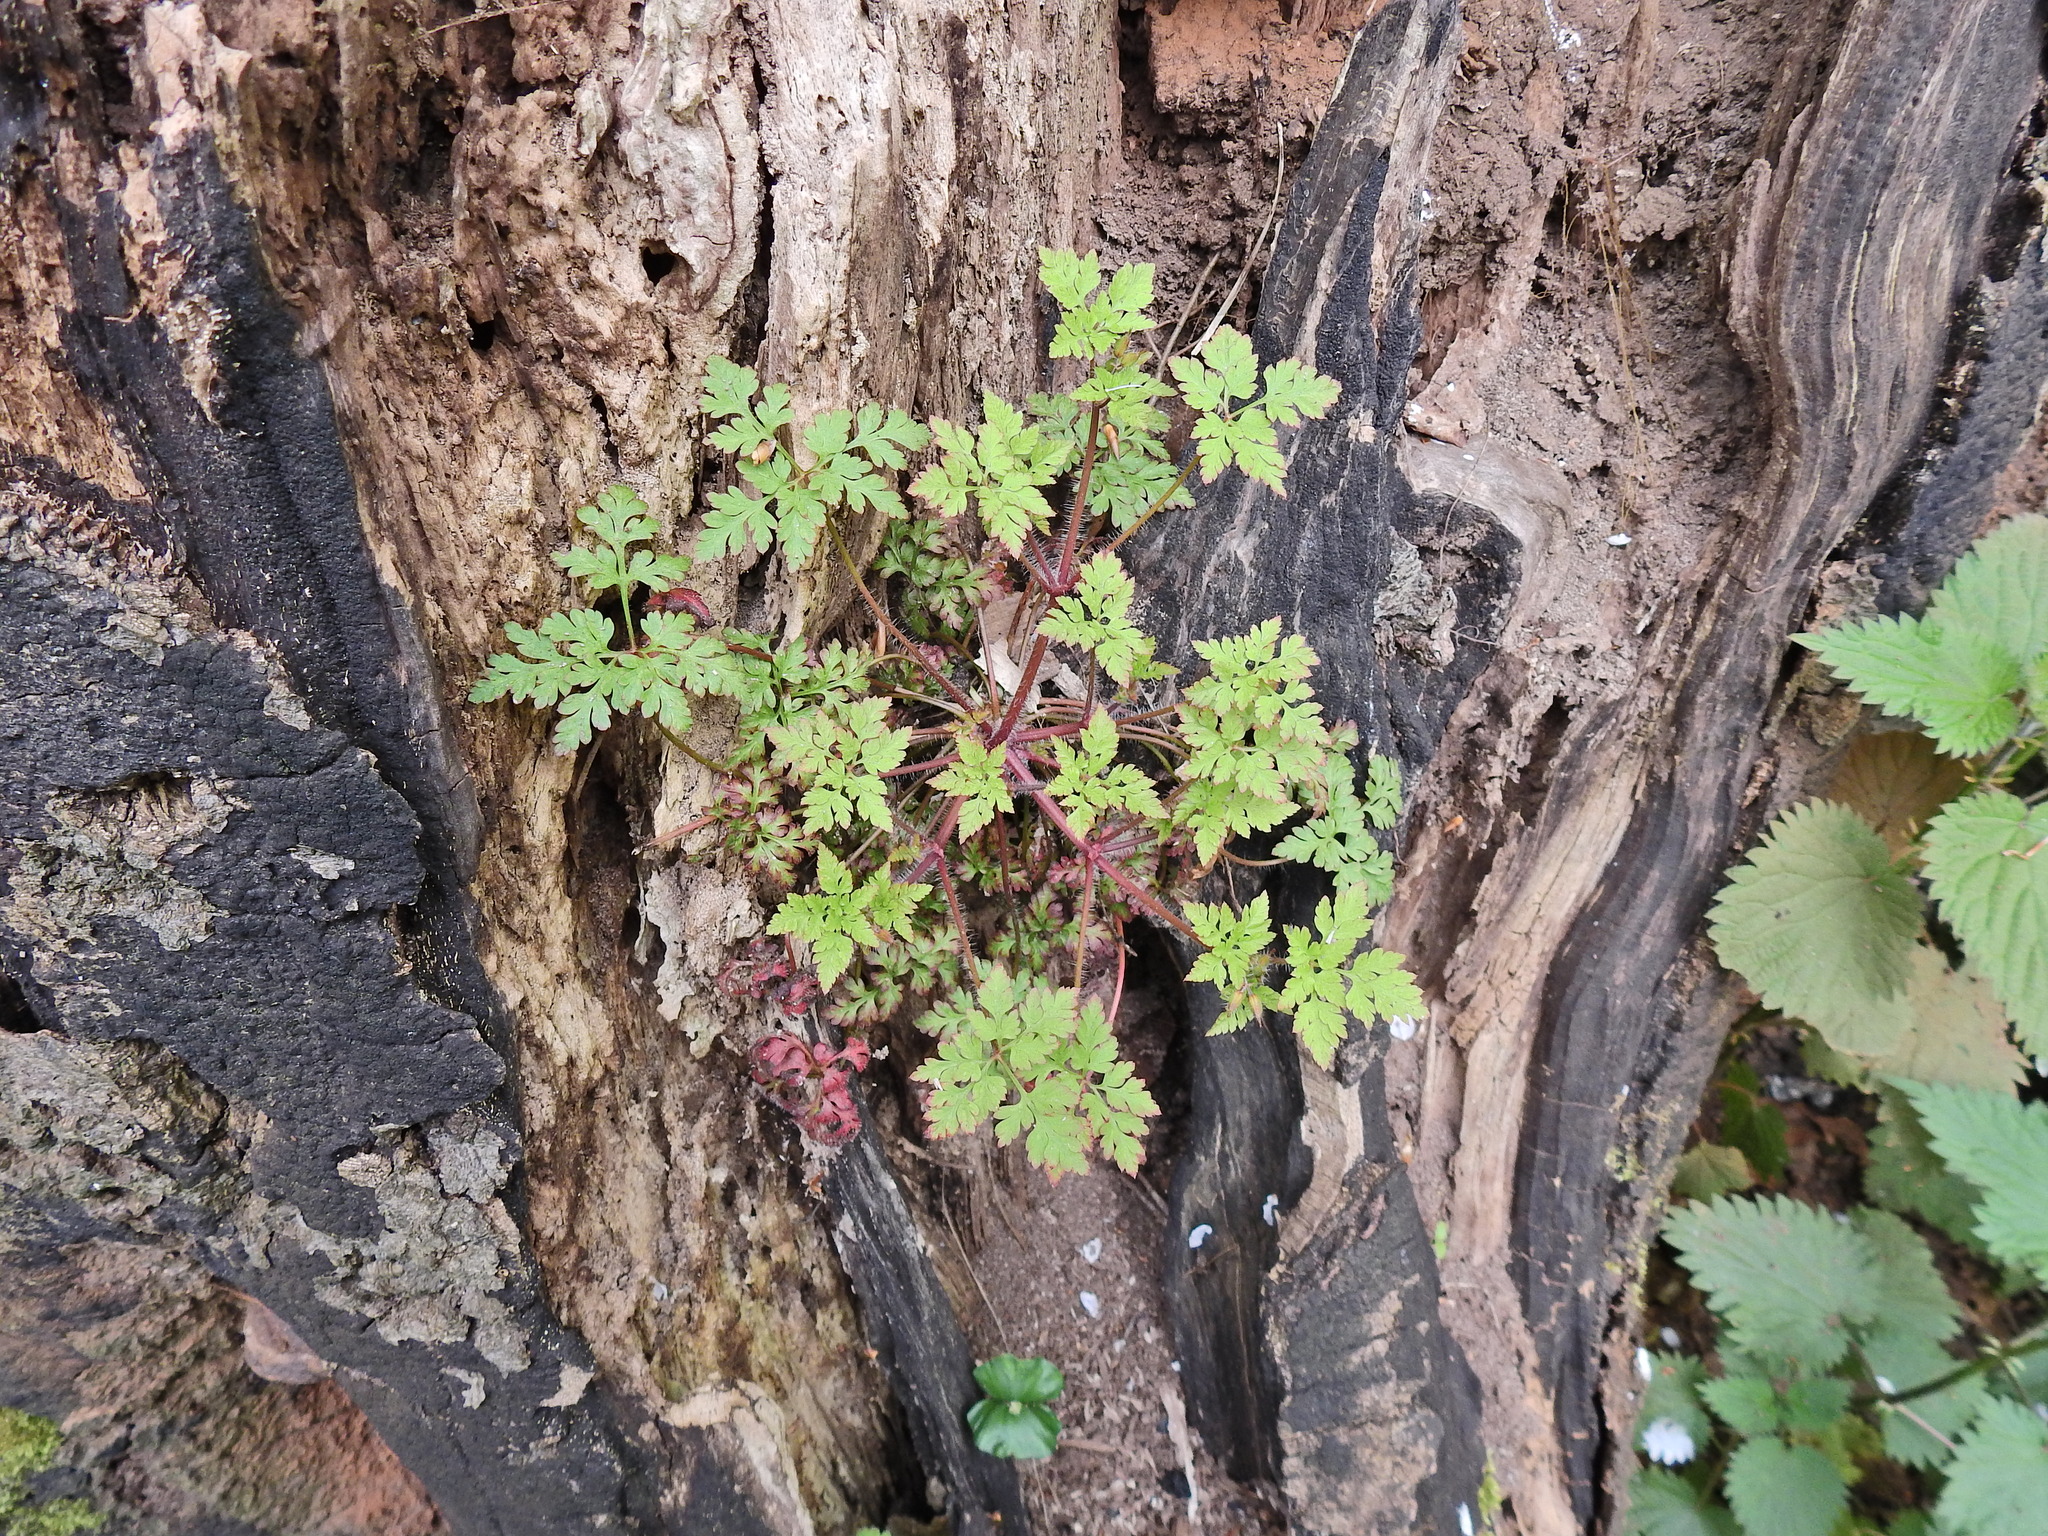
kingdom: Plantae
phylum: Tracheophyta
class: Magnoliopsida
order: Geraniales
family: Geraniaceae
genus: Geranium
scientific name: Geranium robertianum
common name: Herb-robert
